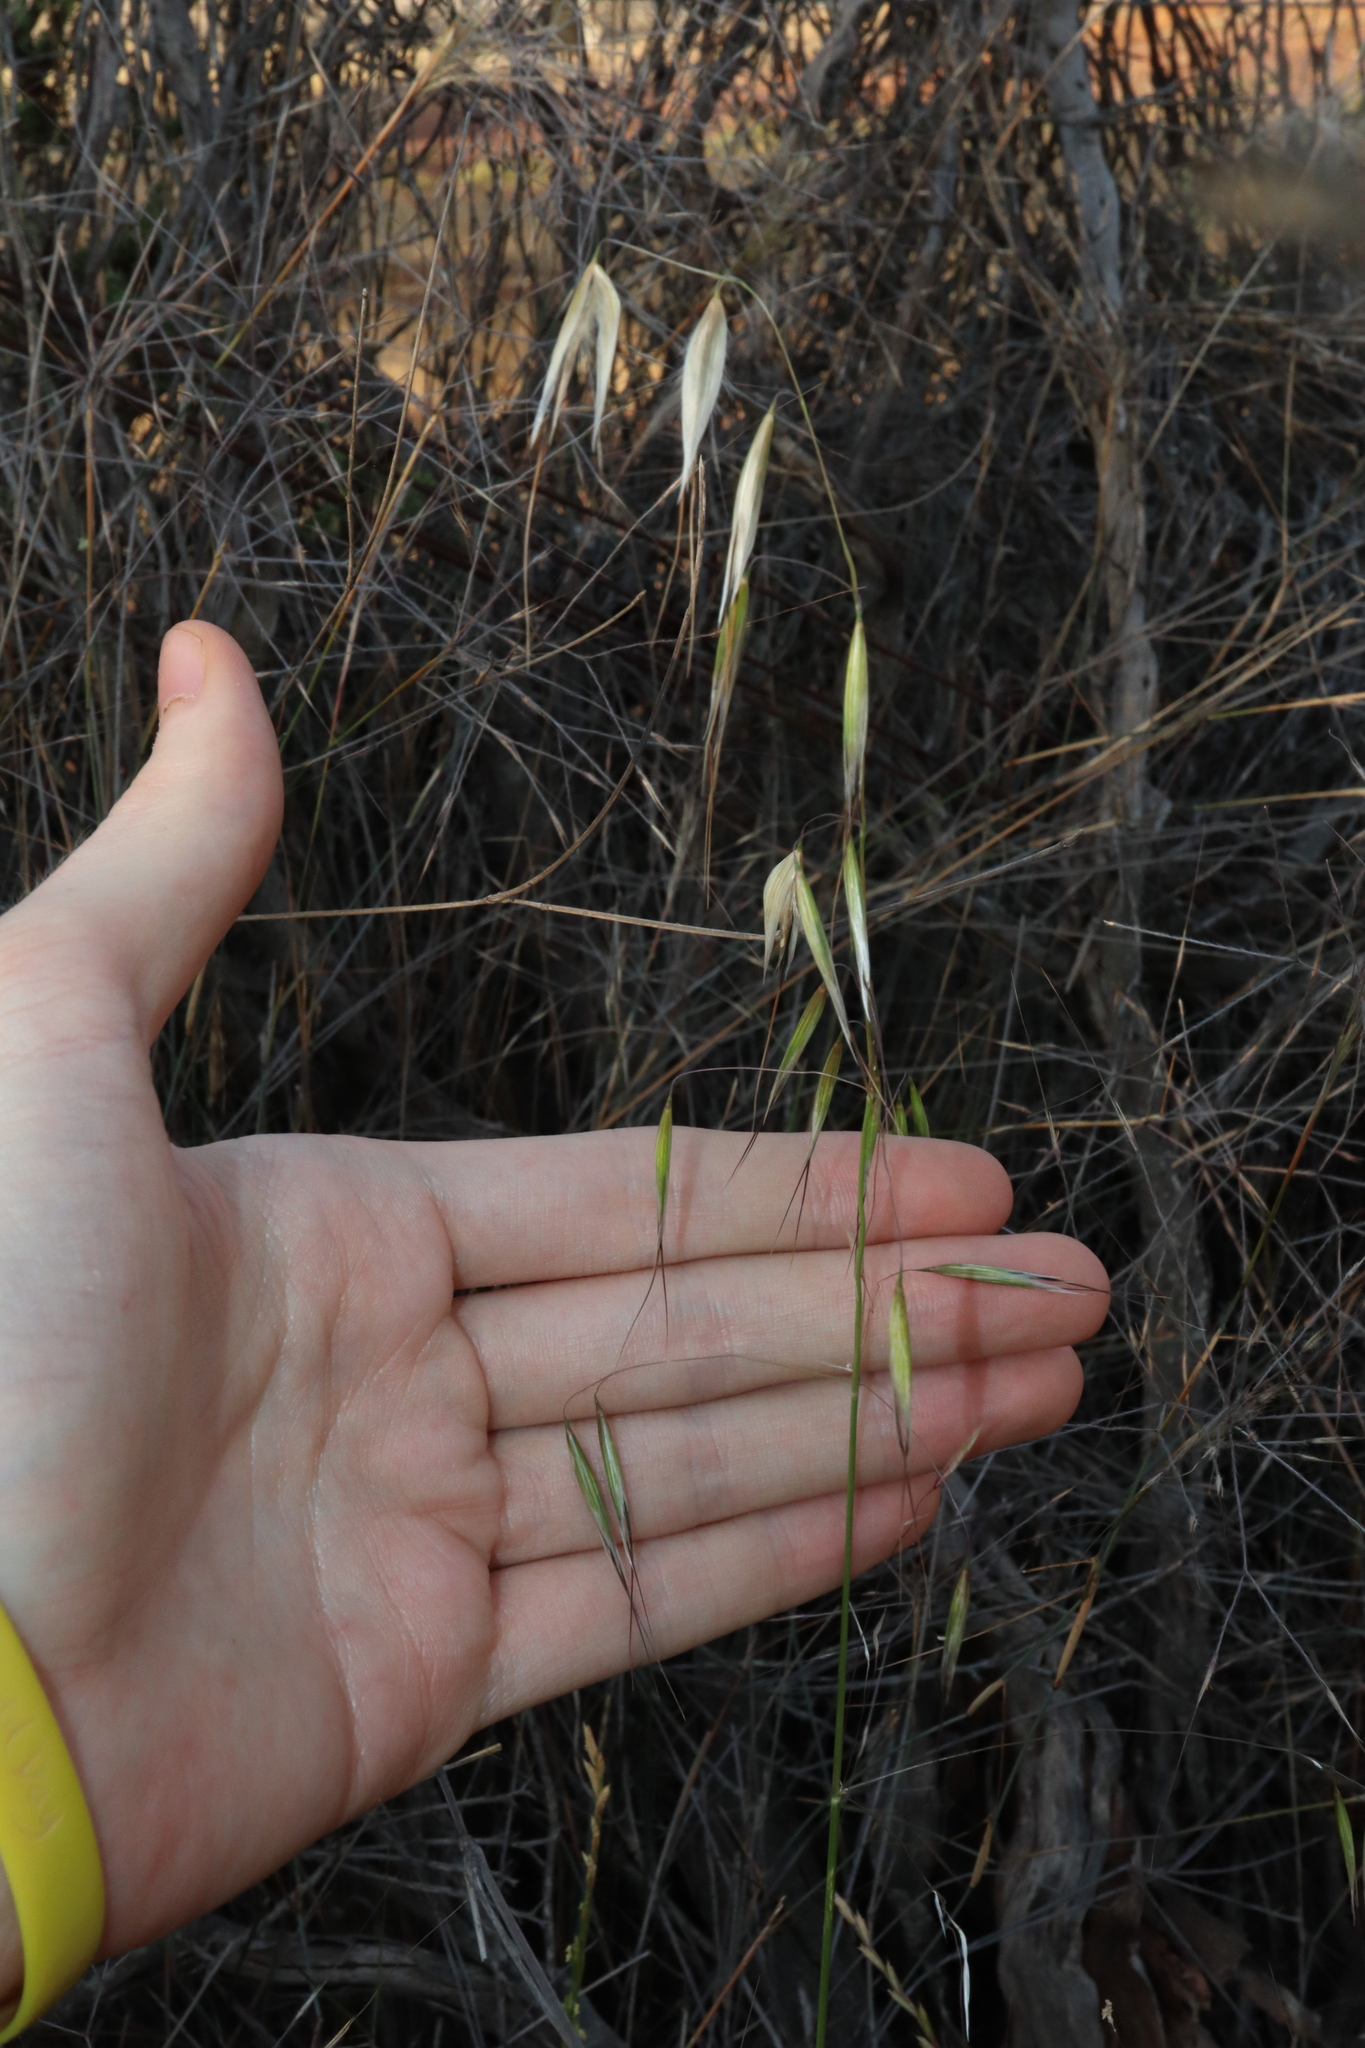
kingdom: Plantae
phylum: Tracheophyta
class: Liliopsida
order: Poales
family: Poaceae
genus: Avena
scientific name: Avena barbata
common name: Slender oat
